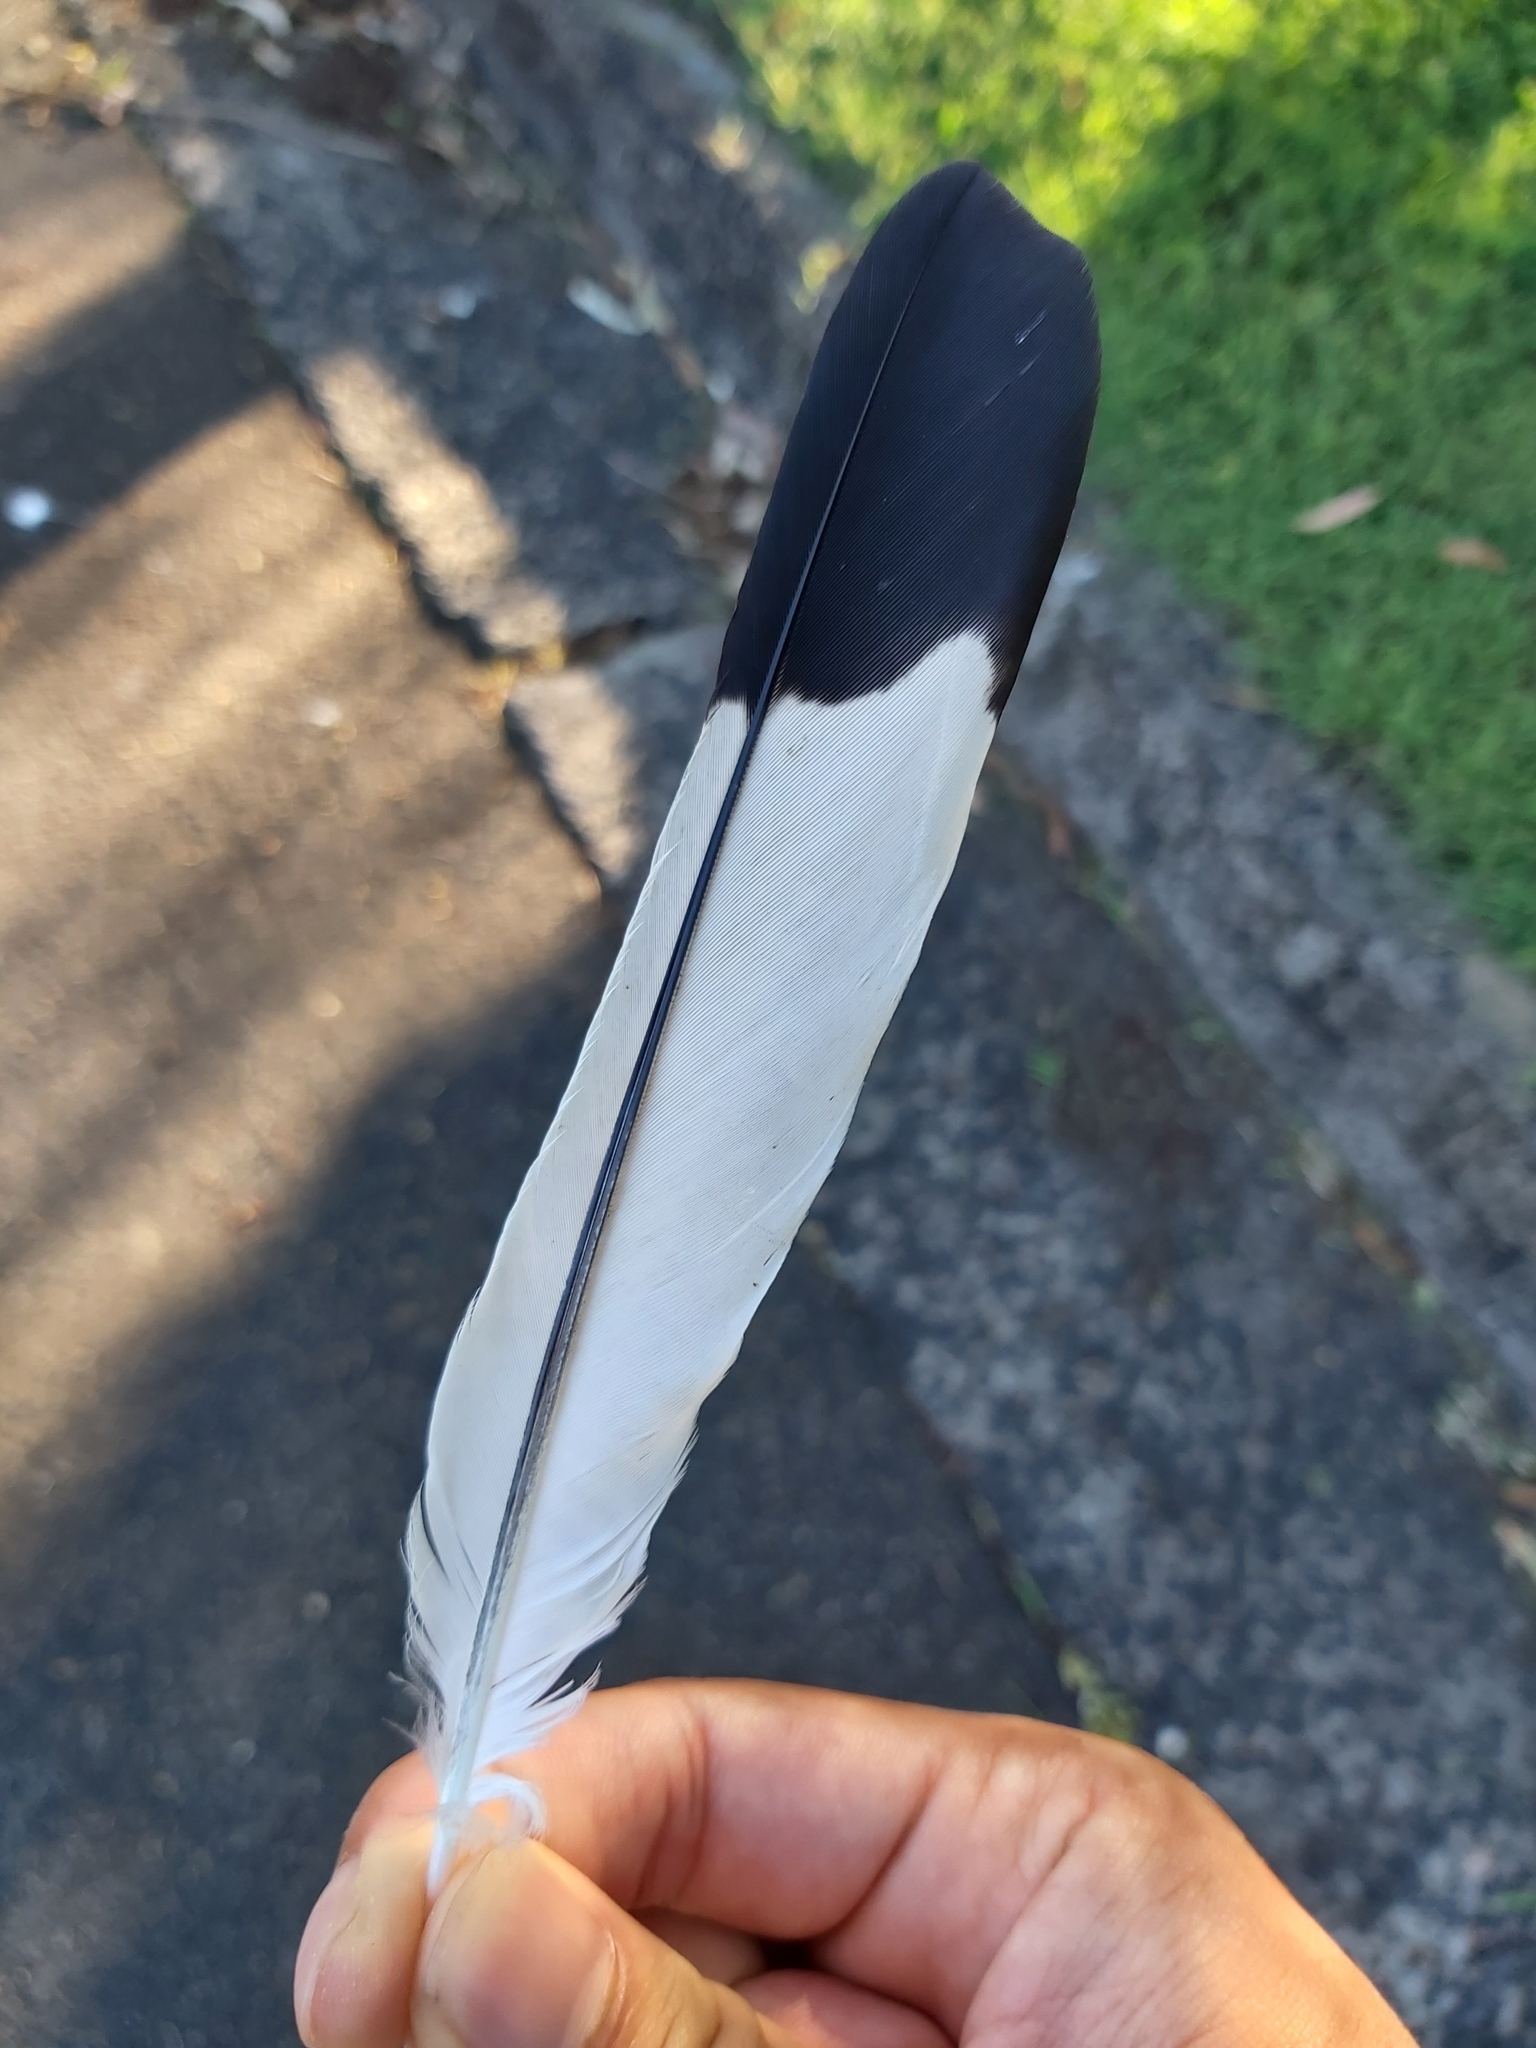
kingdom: Animalia
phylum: Chordata
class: Aves
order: Passeriformes
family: Cracticidae
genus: Gymnorhina
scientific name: Gymnorhina tibicen
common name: Australian magpie
